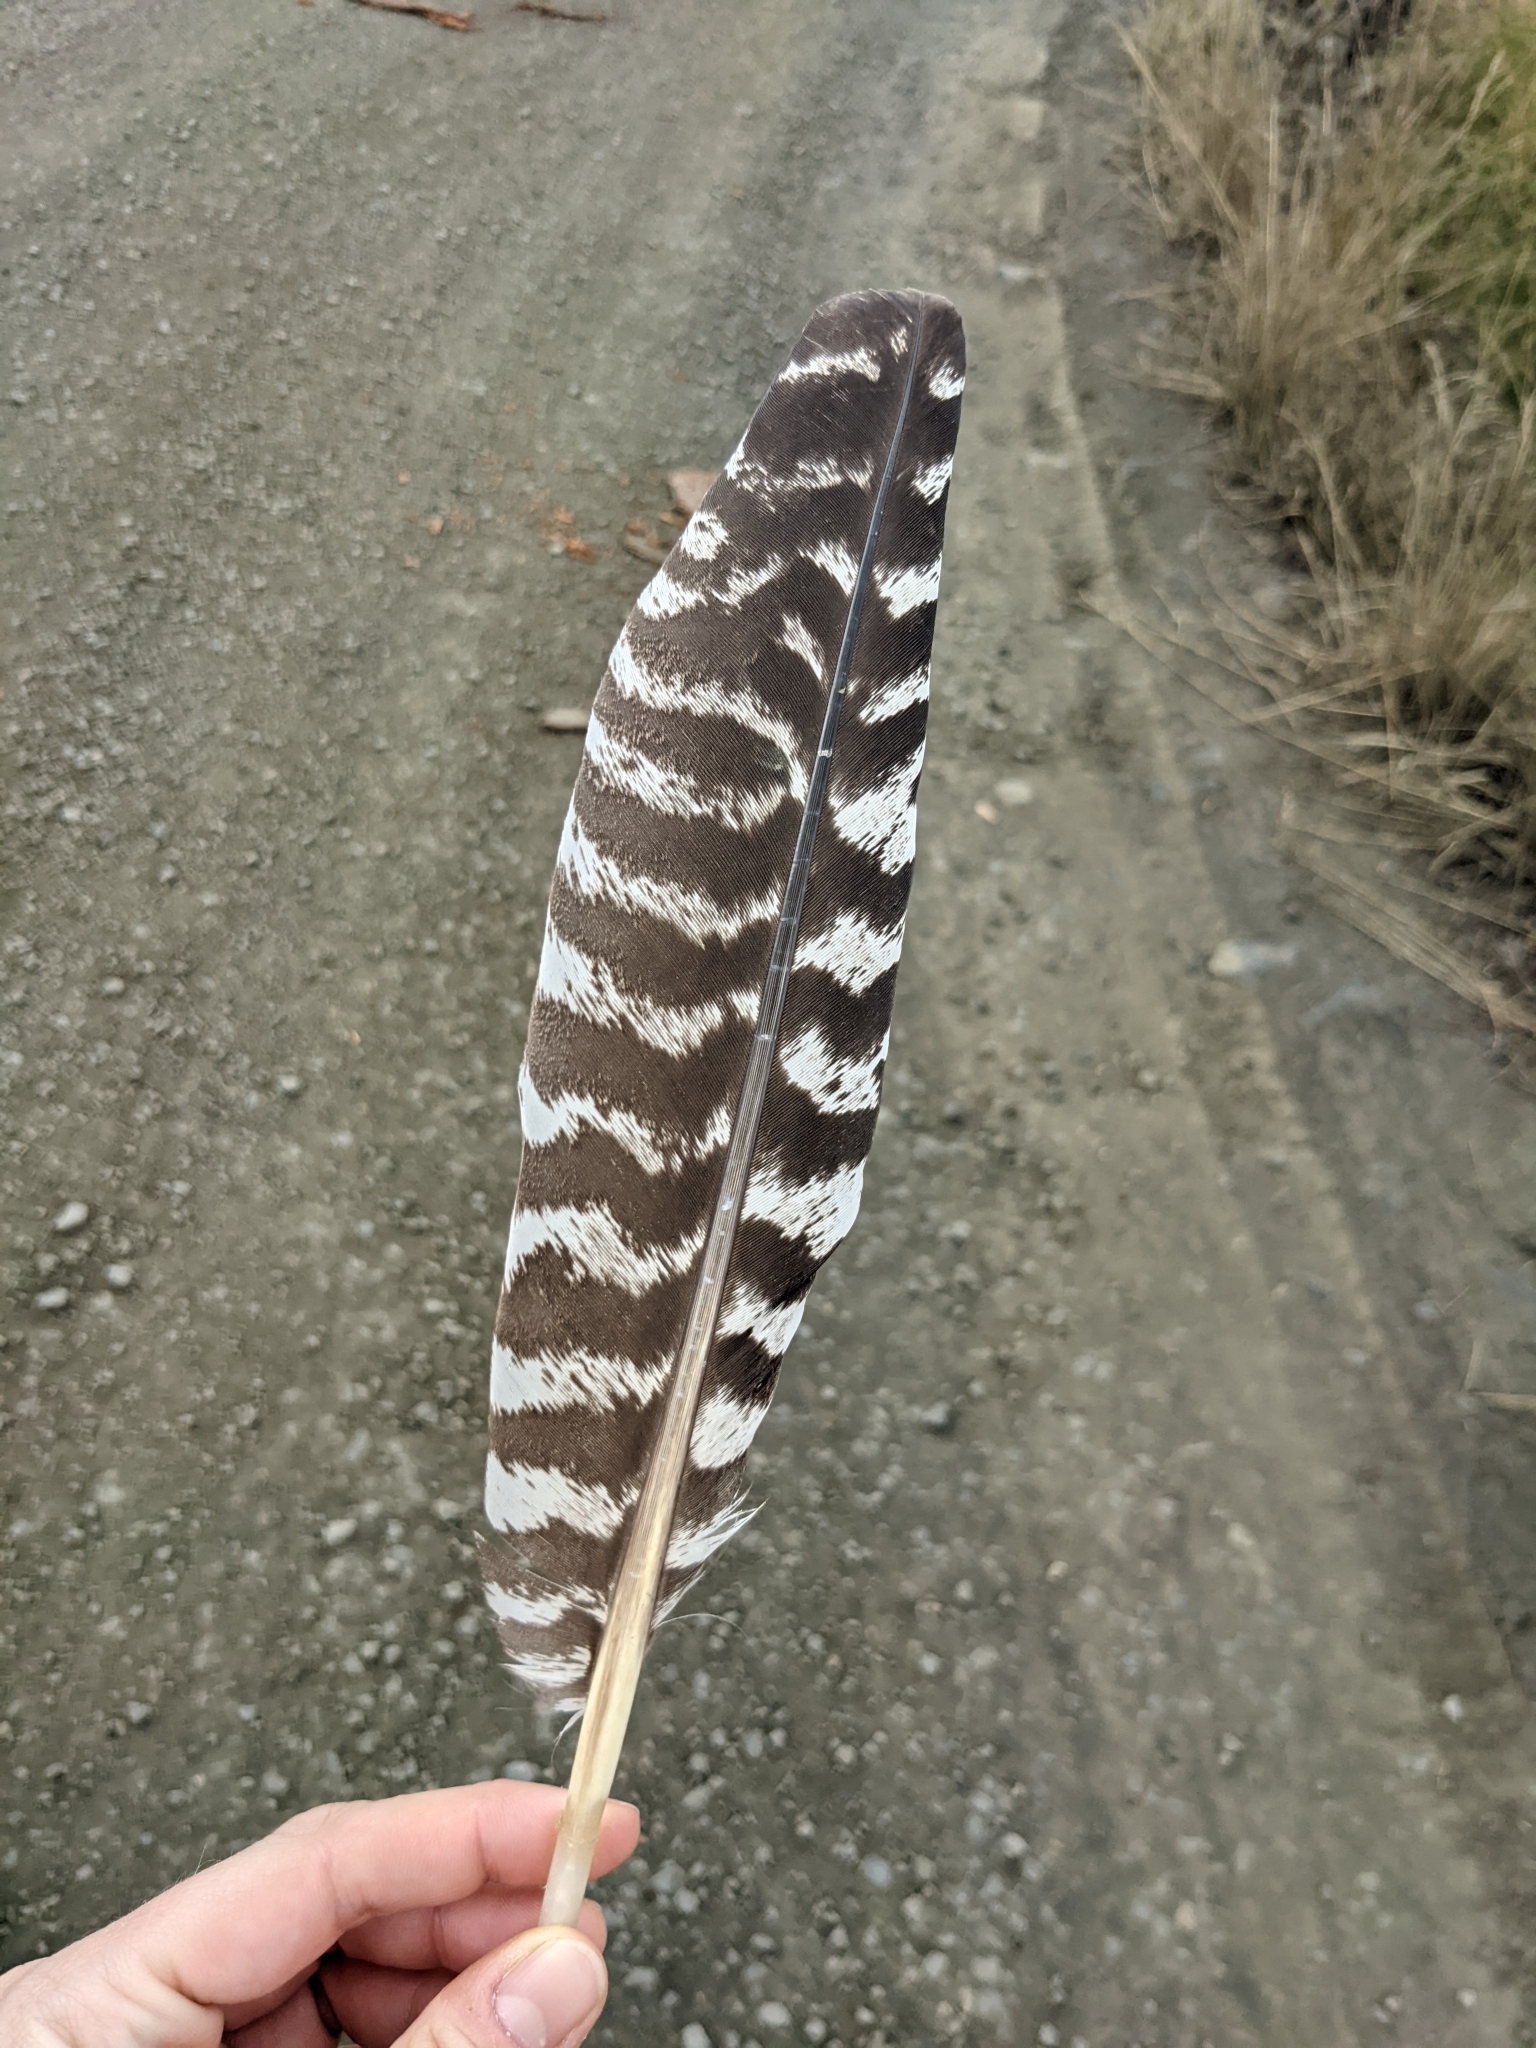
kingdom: Animalia
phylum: Chordata
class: Aves
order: Galliformes
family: Phasianidae
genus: Meleagris
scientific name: Meleagris gallopavo
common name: Wild turkey
